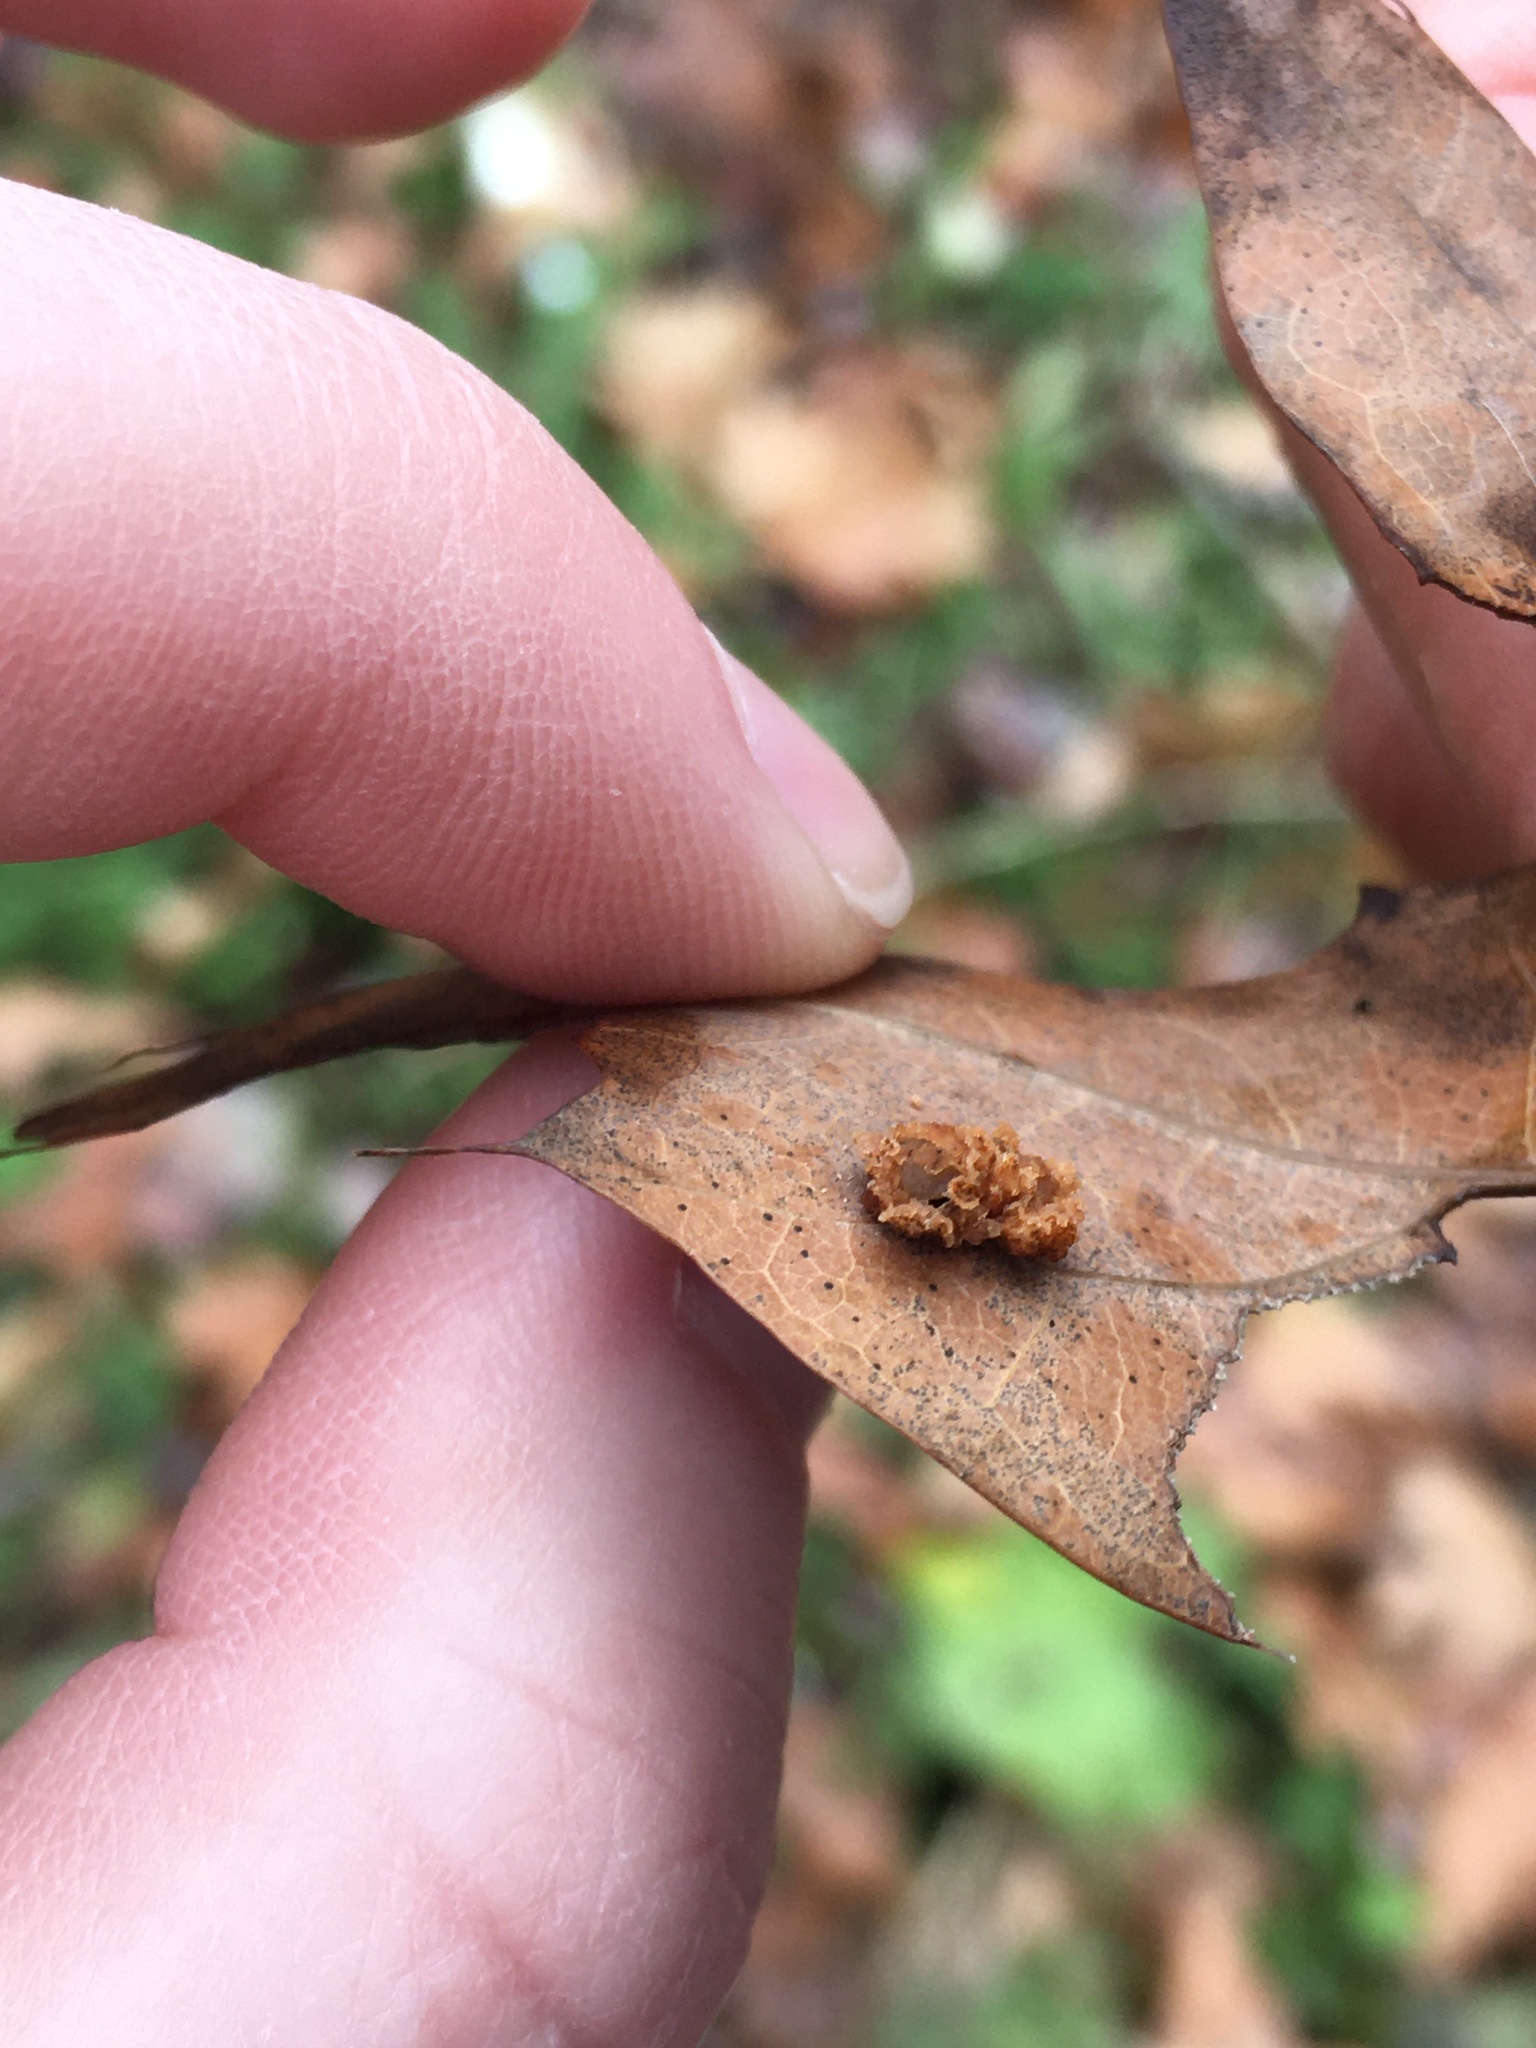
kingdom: Animalia
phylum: Arthropoda
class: Insecta
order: Diptera
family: Cecidomyiidae
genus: Polystepha
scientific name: Polystepha pilulae
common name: Oak leaf gall midge
